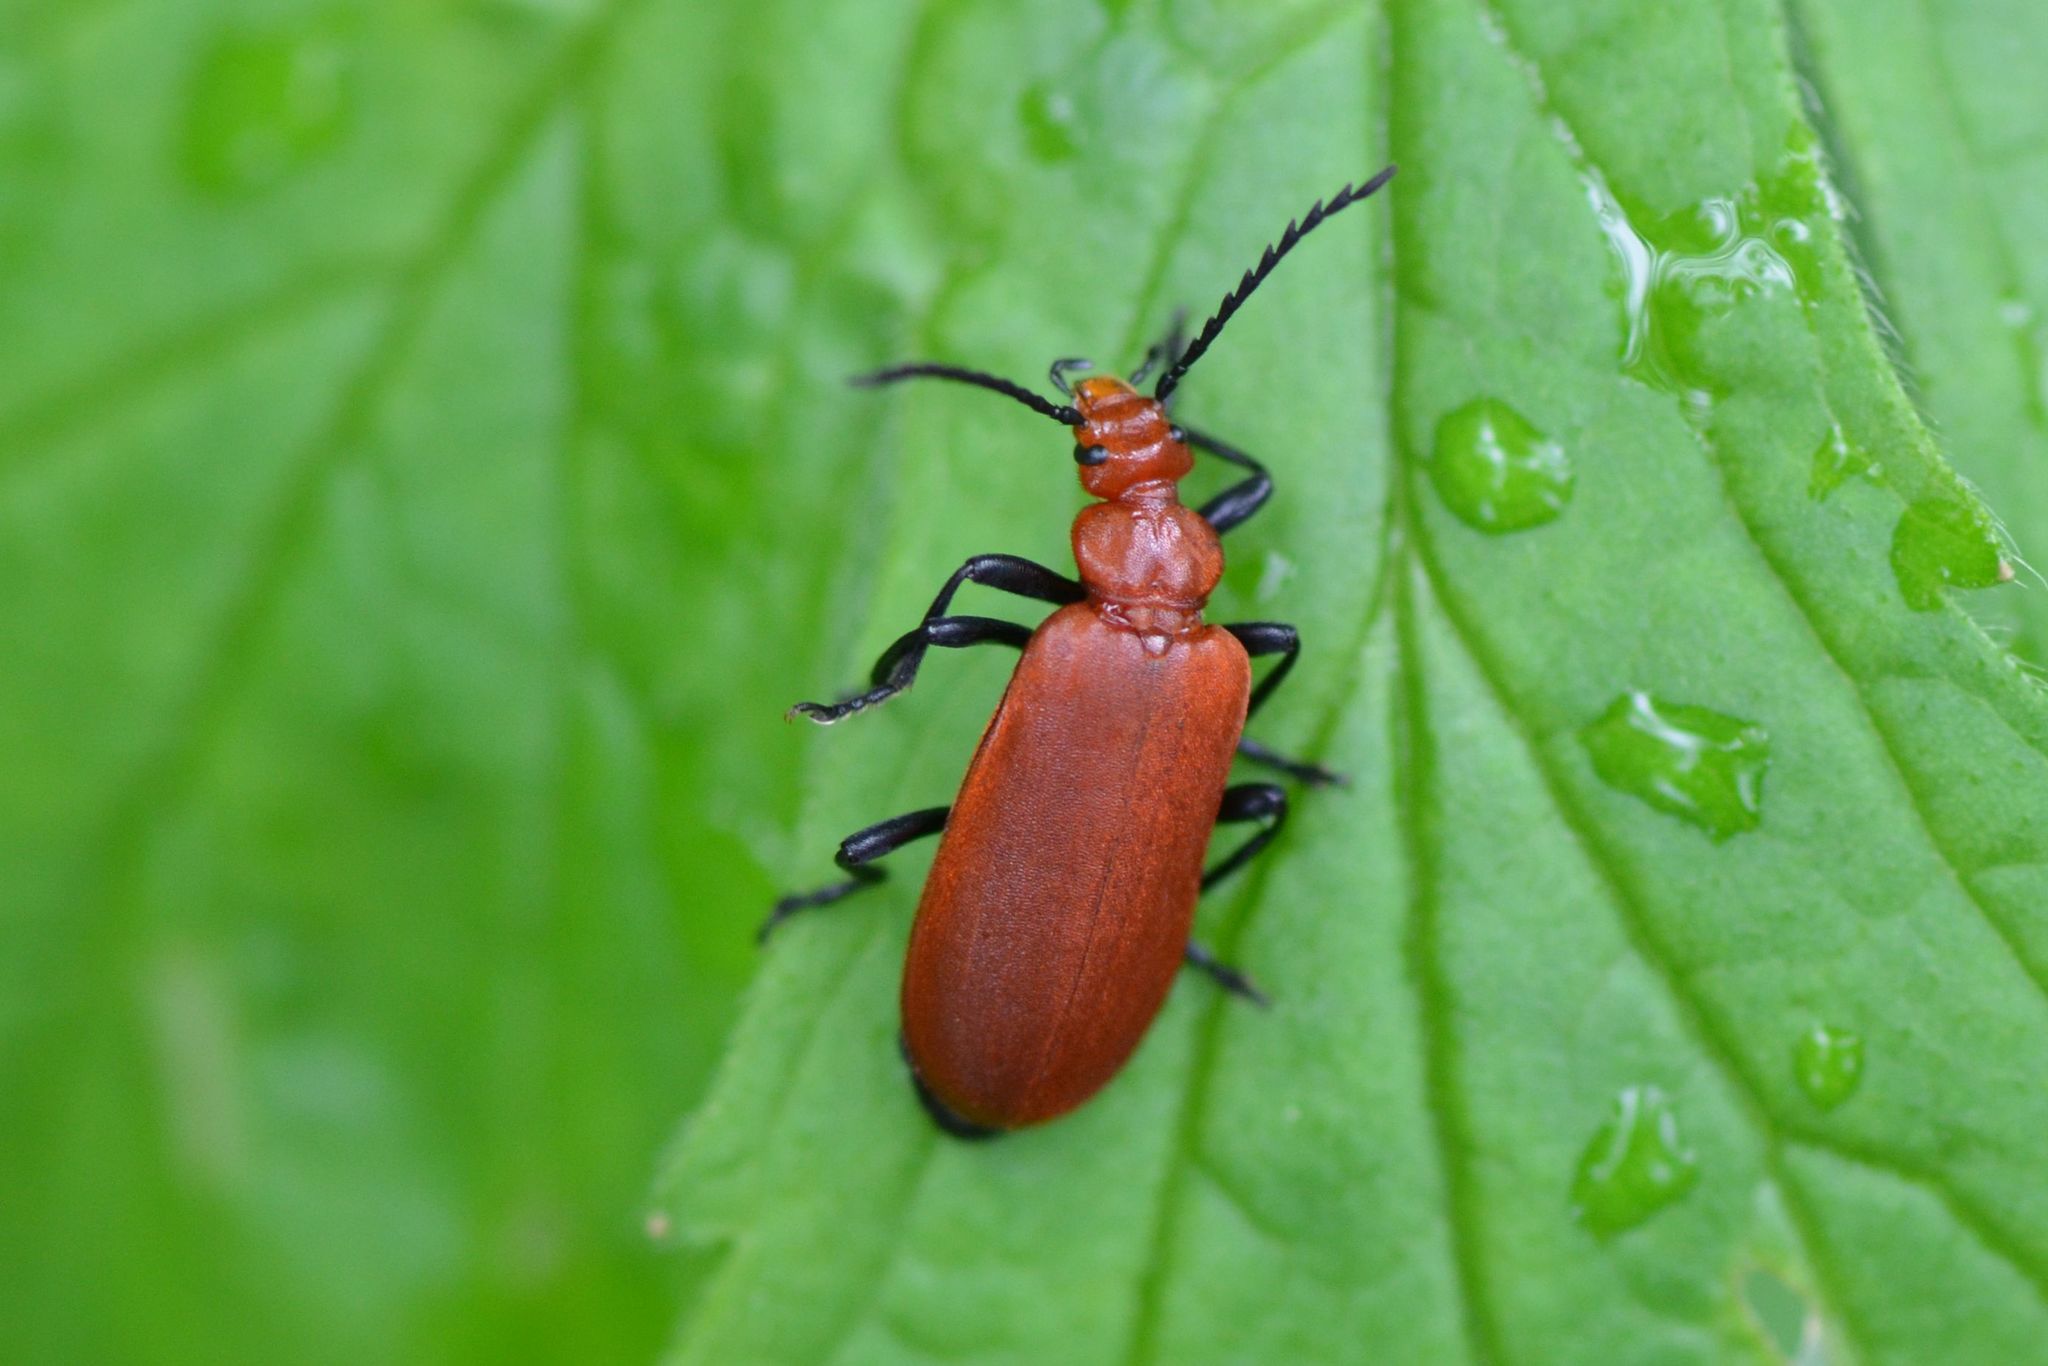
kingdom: Animalia
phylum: Arthropoda
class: Insecta
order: Coleoptera
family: Pyrochroidae
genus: Pyrochroa
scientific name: Pyrochroa serraticornis
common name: Red-headed cardinal beetle
